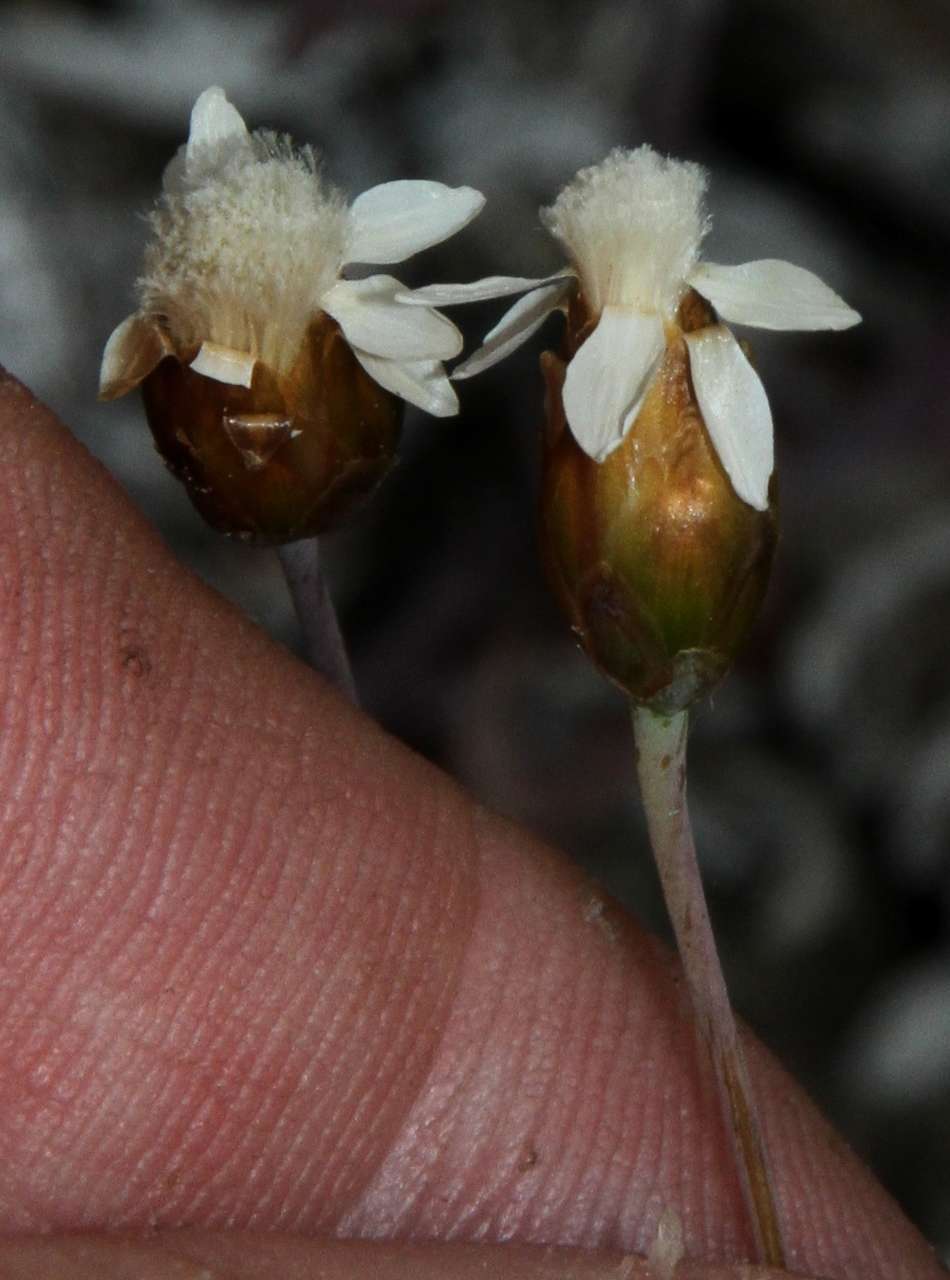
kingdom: Plantae
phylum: Tracheophyta
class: Magnoliopsida
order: Asterales
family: Asteraceae
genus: Rhodanthe
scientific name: Rhodanthe stricta
